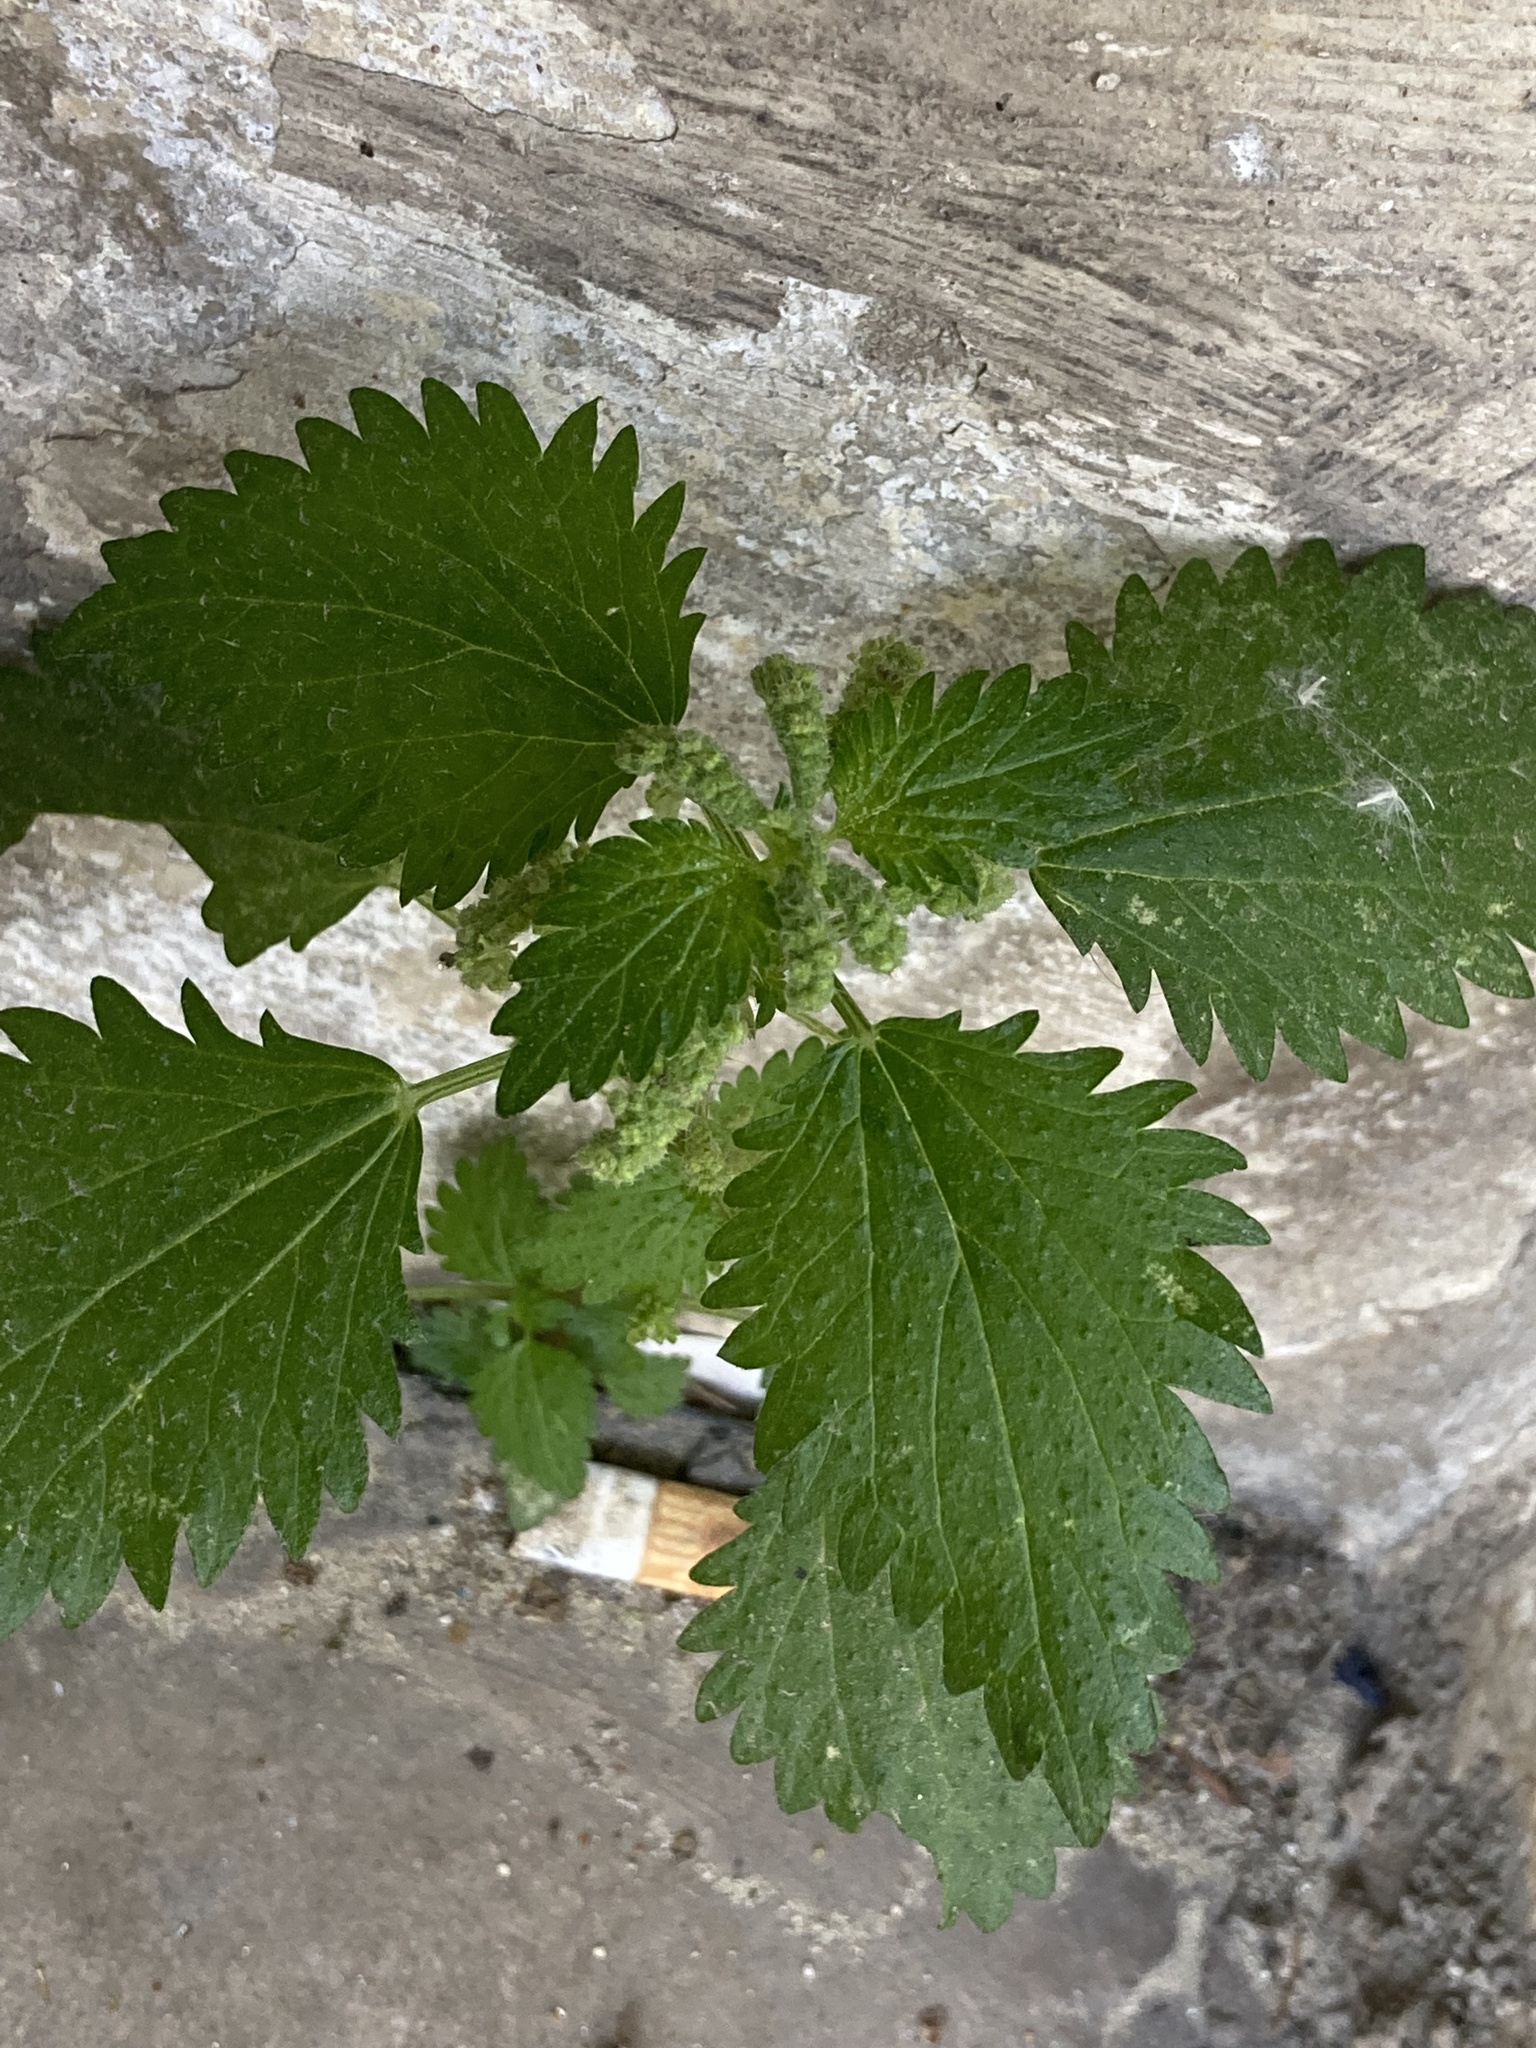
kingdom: Plantae
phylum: Tracheophyta
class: Magnoliopsida
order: Rosales
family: Urticaceae
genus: Urtica
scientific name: Urtica membranacea
